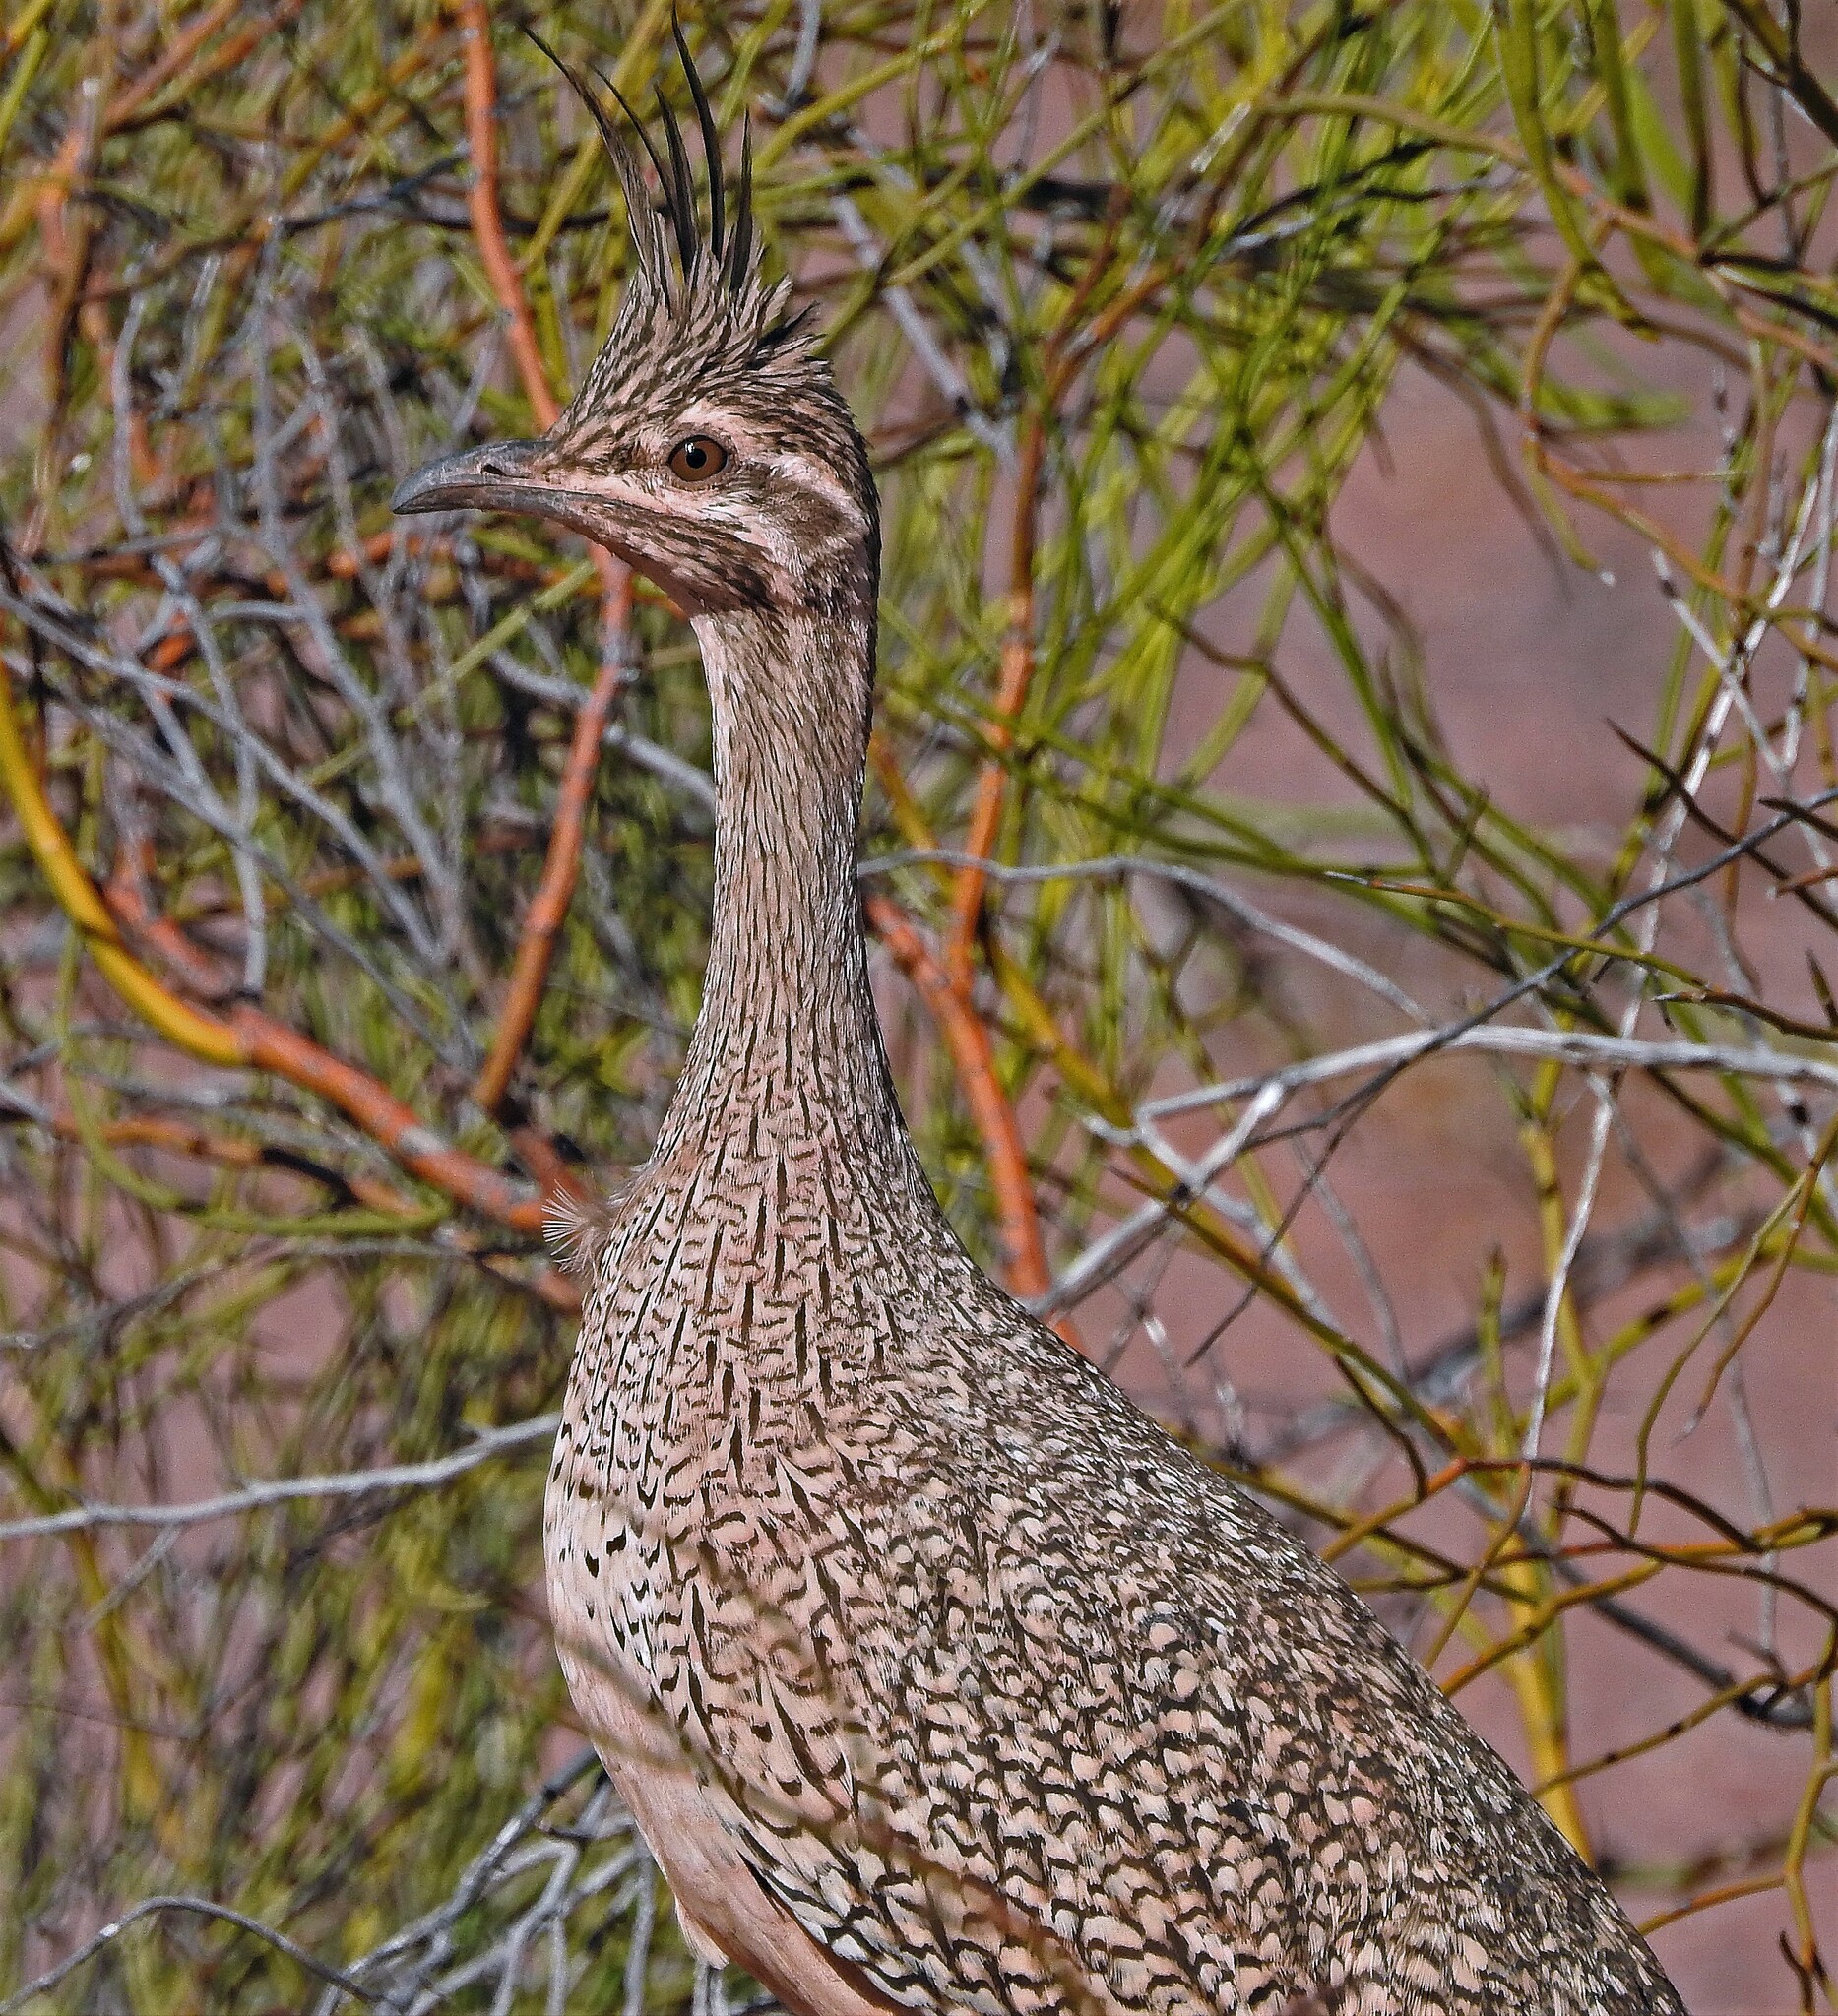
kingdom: Animalia
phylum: Chordata
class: Aves
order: Tinamiformes
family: Tinamidae
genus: Eudromia
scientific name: Eudromia elegans
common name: Elegant crested tinamou
